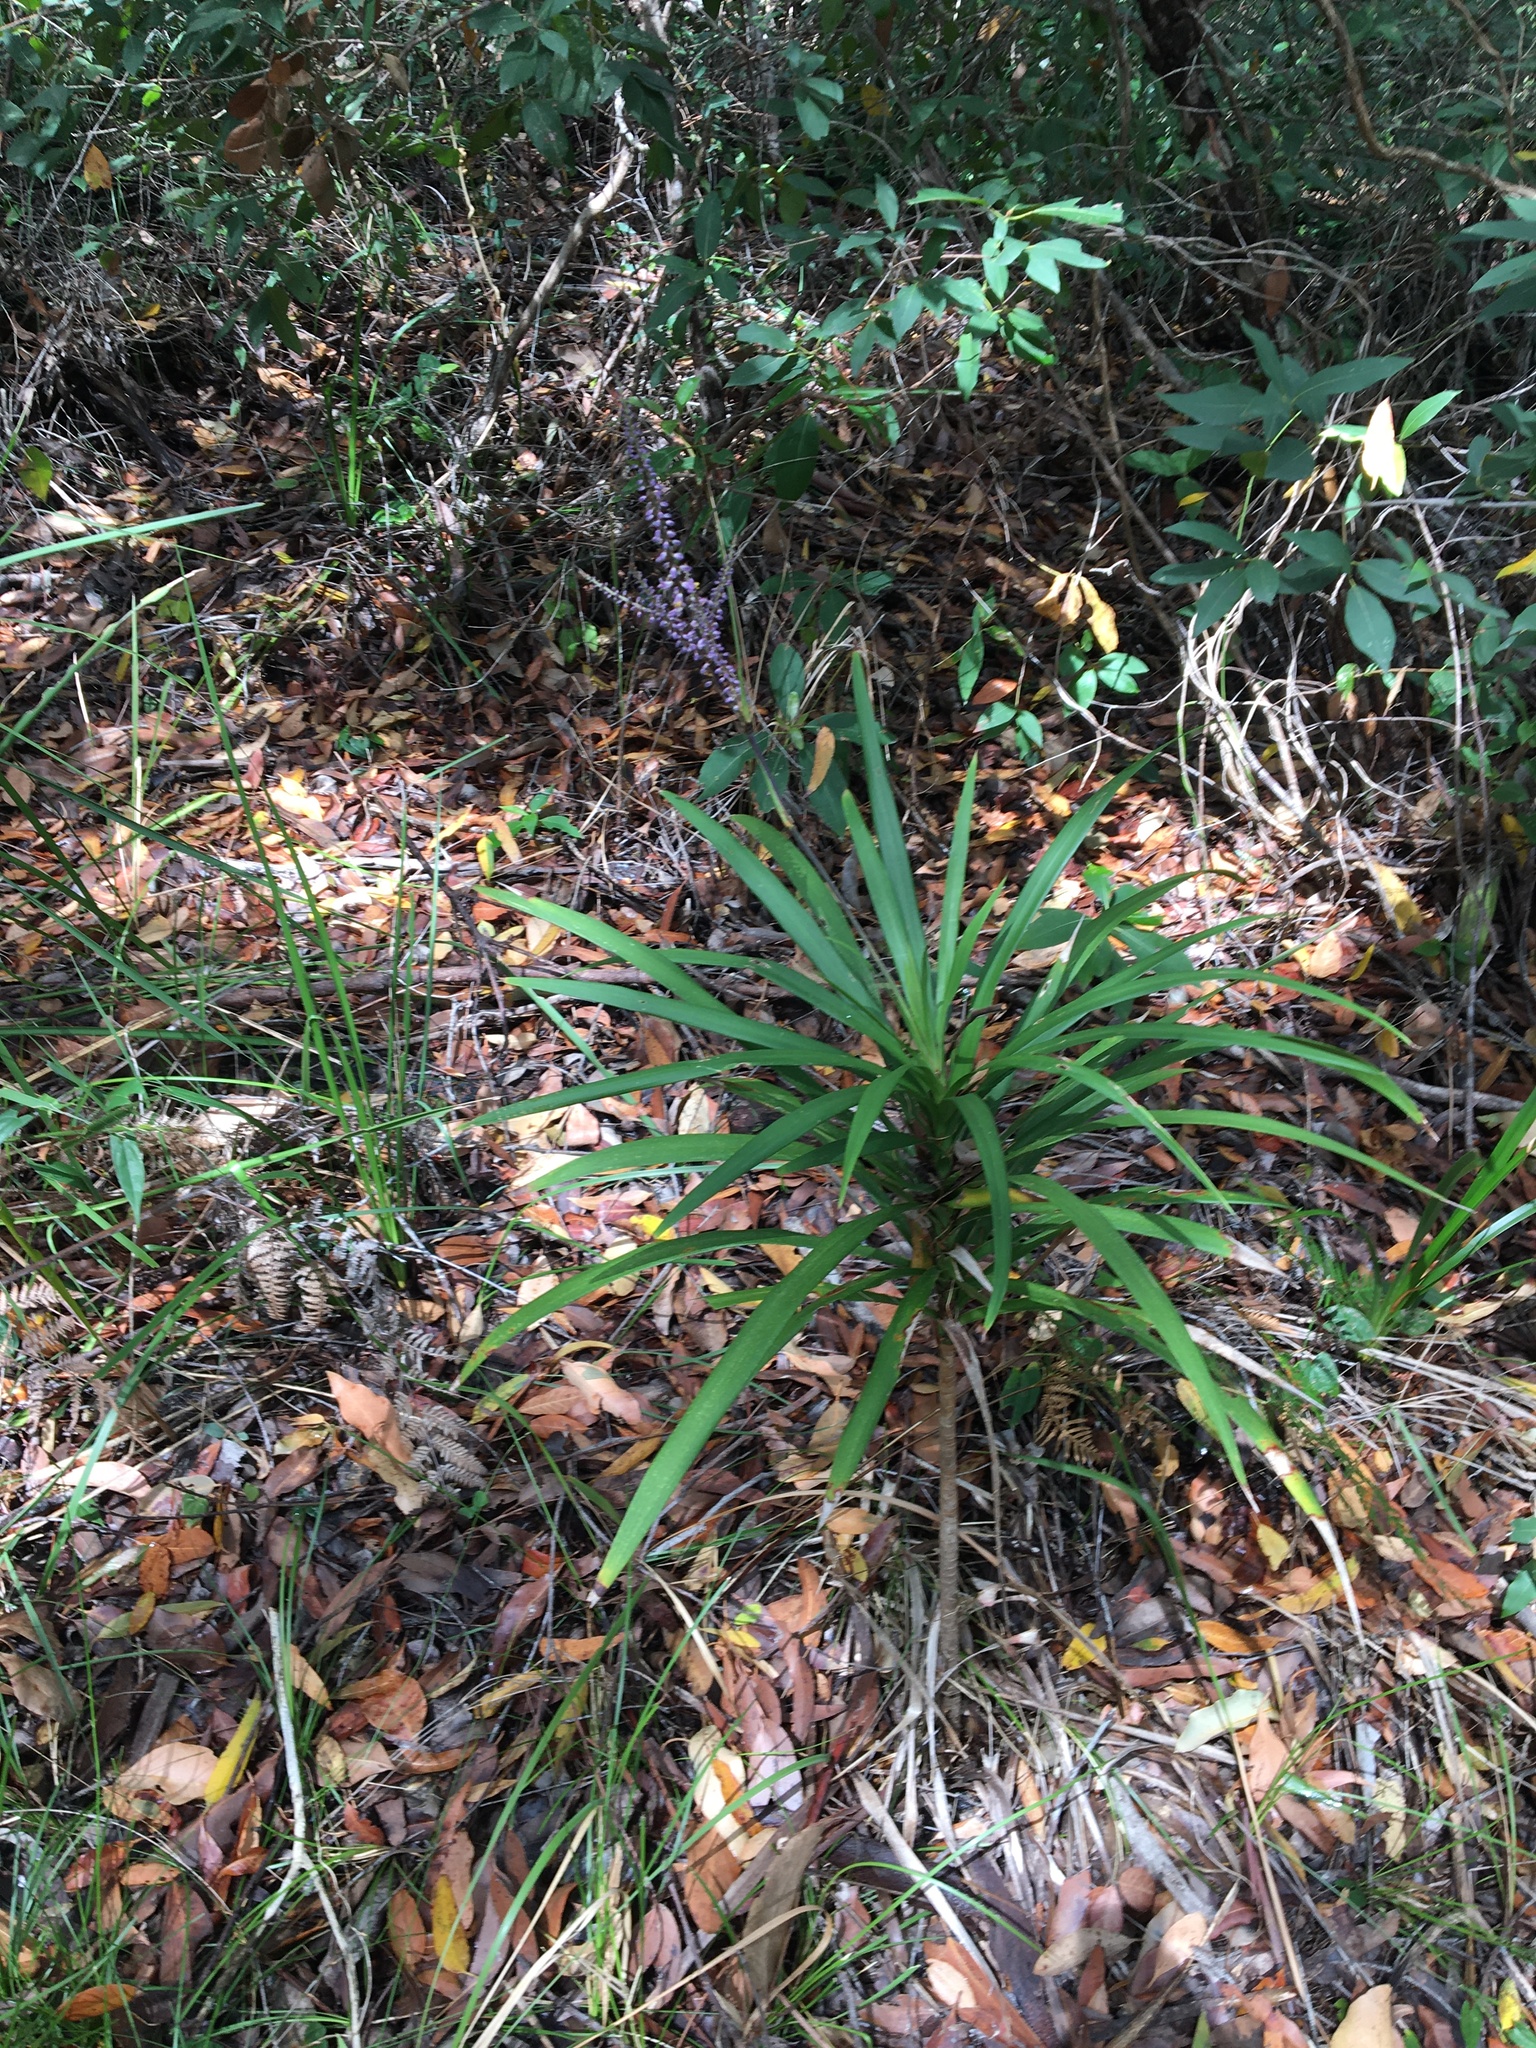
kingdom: Plantae
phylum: Tracheophyta
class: Liliopsida
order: Asparagales
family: Asparagaceae
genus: Cordyline
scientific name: Cordyline stricta
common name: Narrow-leaf palm-lily
